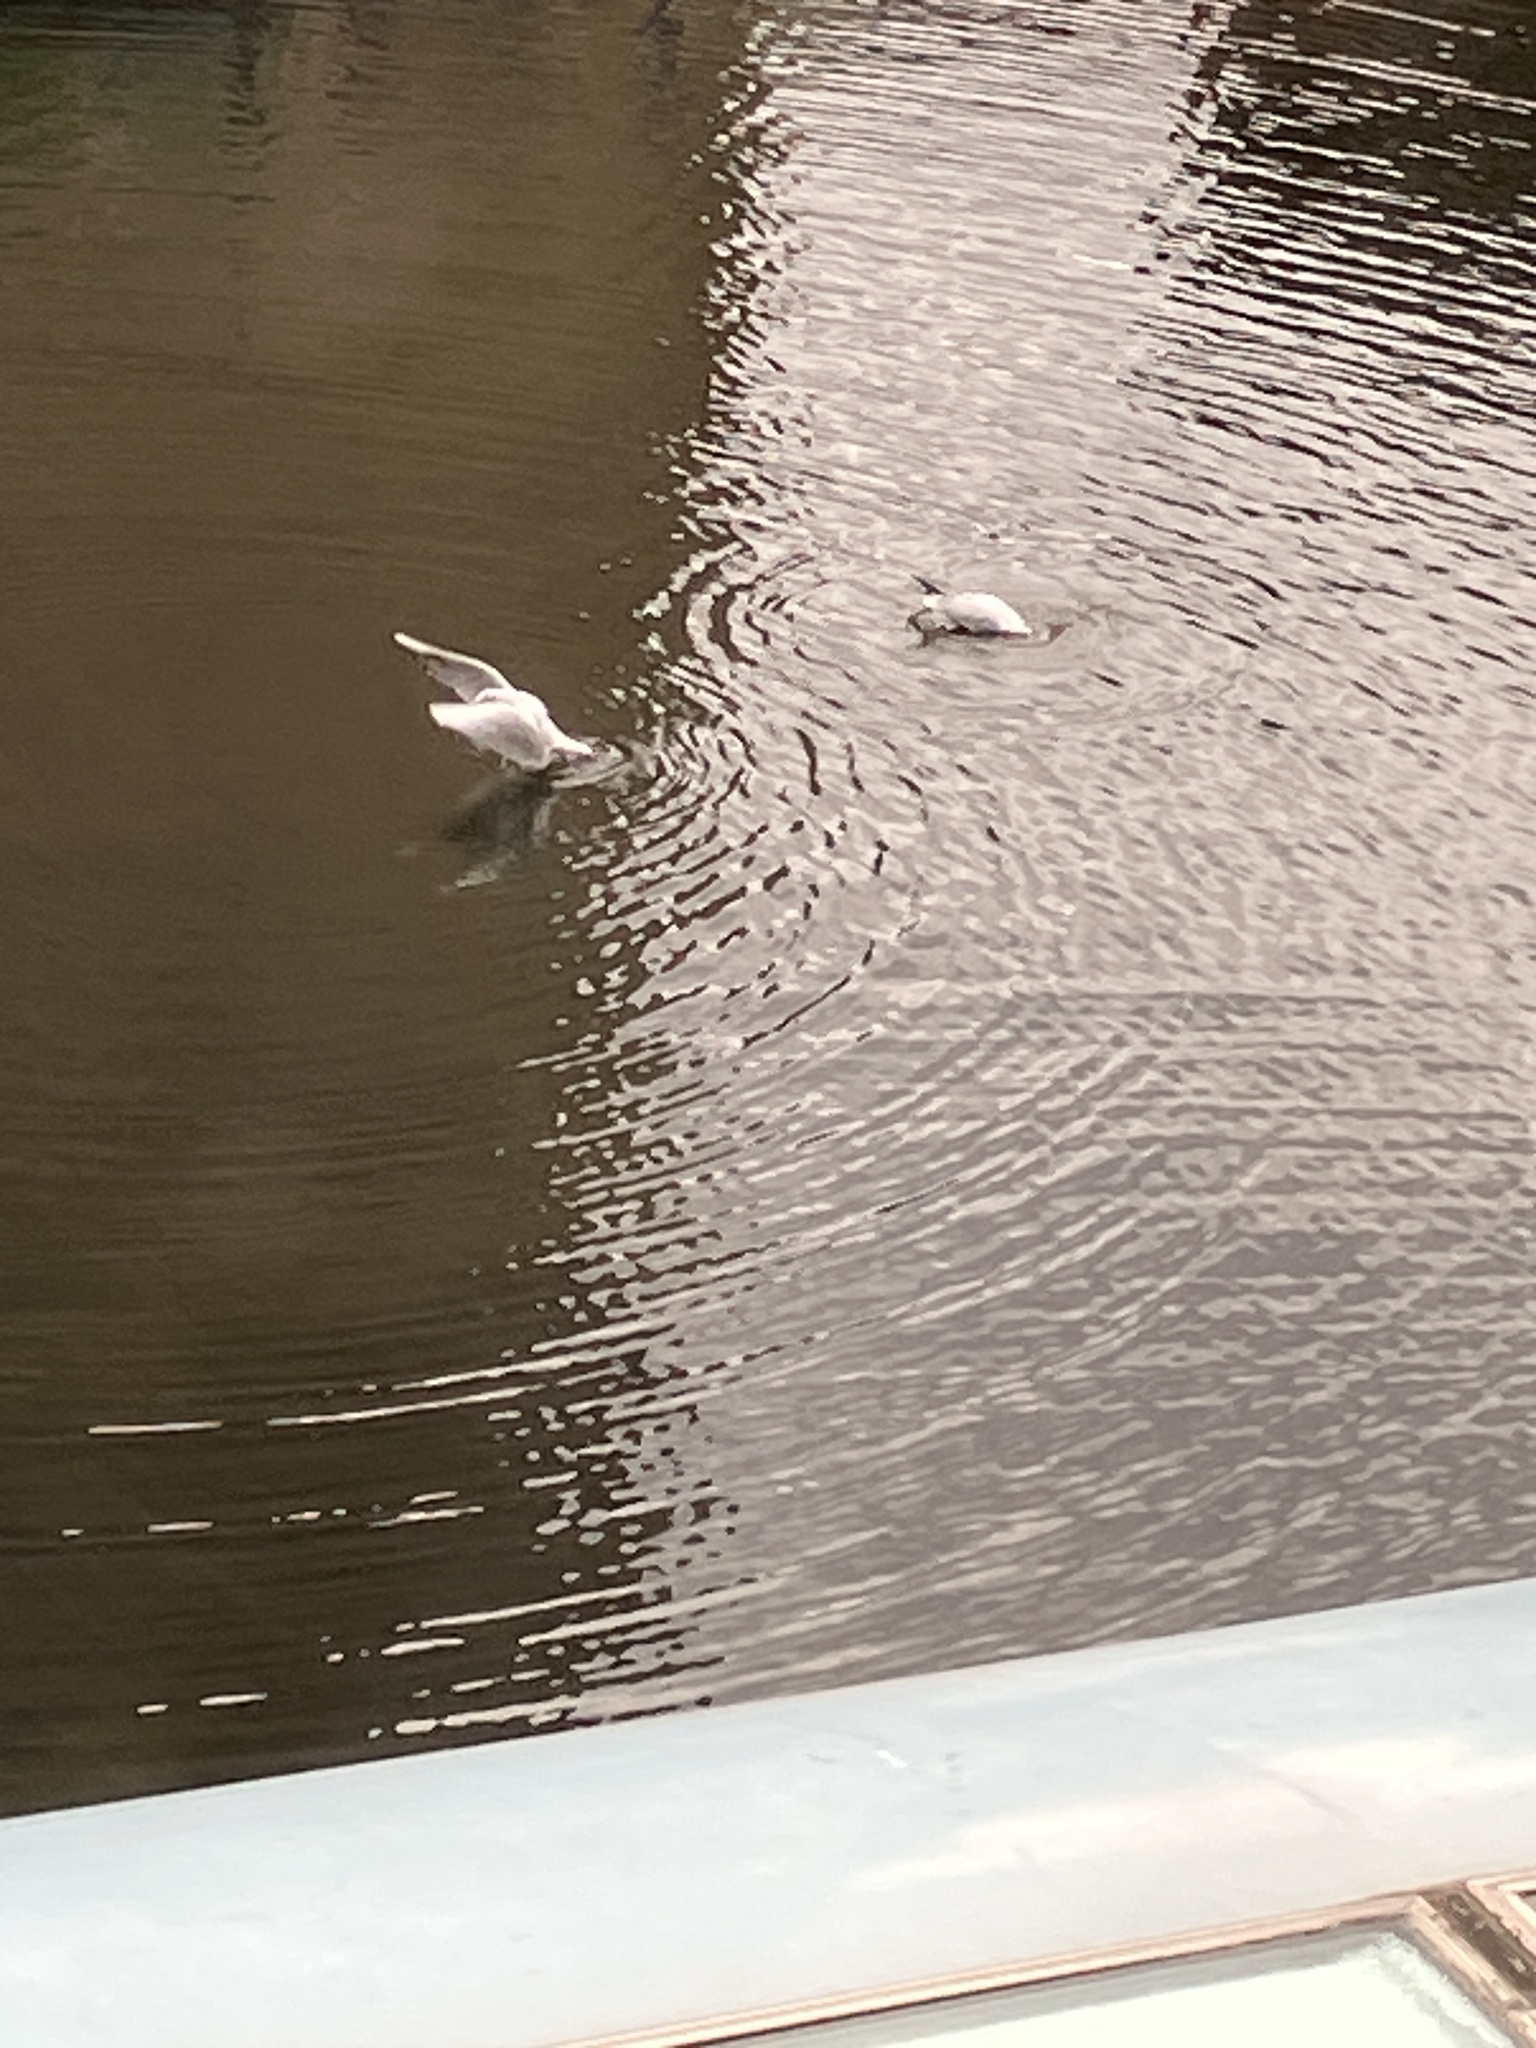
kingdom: Animalia
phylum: Chordata
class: Aves
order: Charadriiformes
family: Laridae
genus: Chroicocephalus
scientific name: Chroicocephalus ridibundus
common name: Black-headed gull
